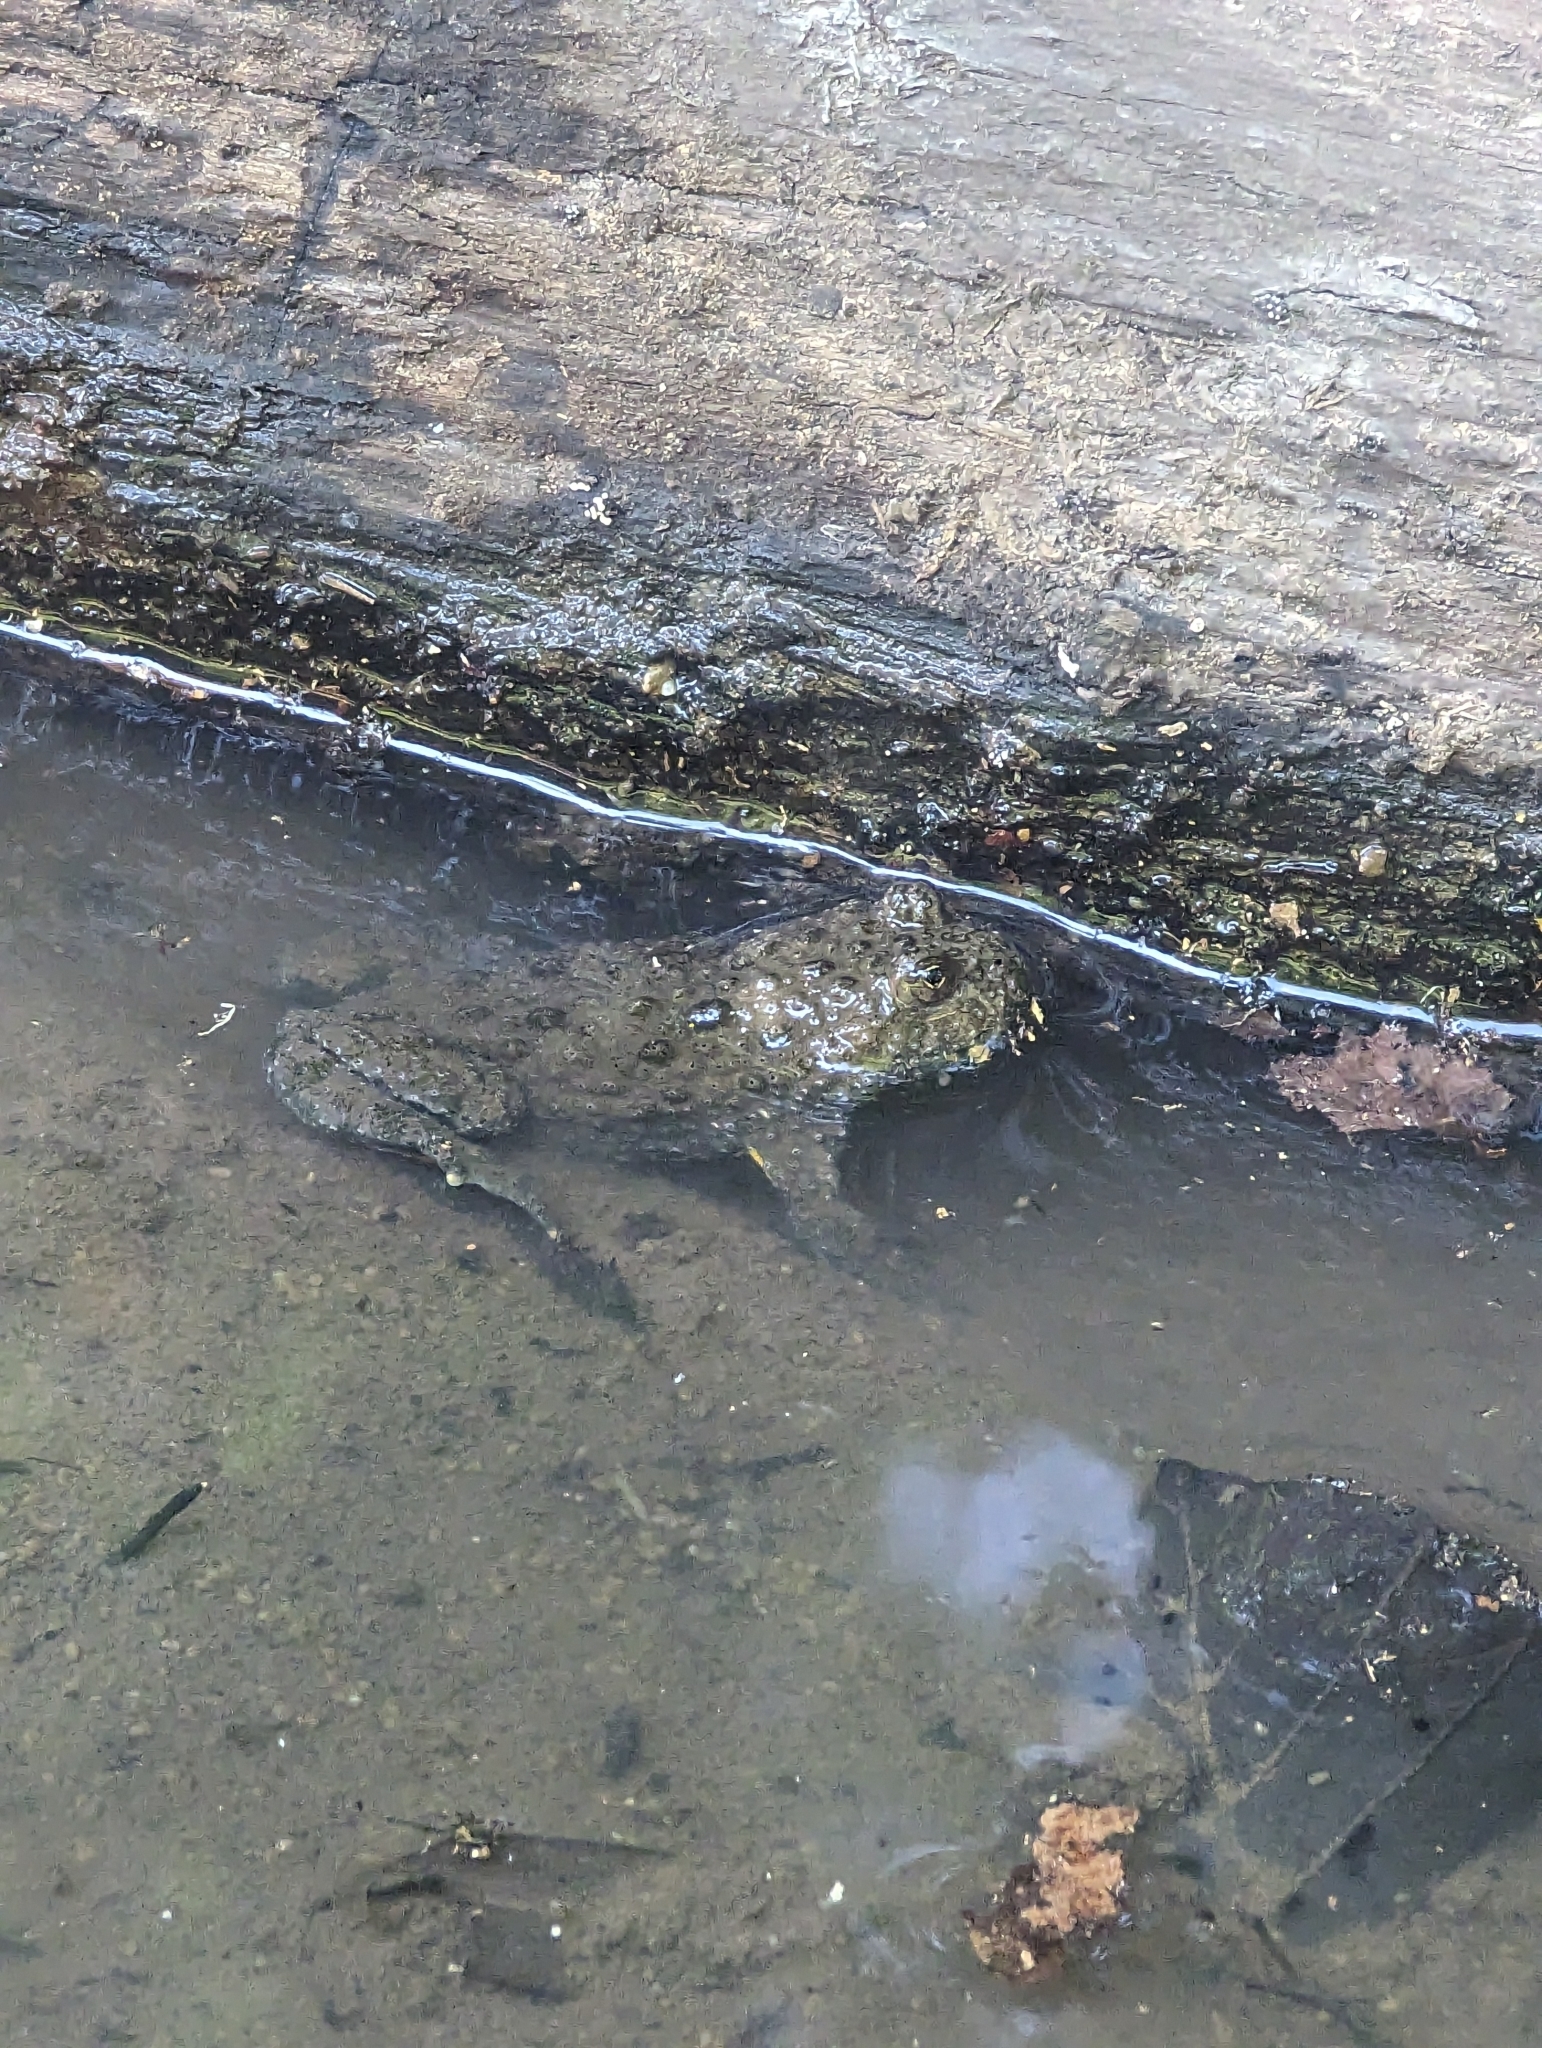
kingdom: Animalia
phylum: Chordata
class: Amphibia
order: Anura
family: Bombinatoridae
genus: Bombina
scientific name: Bombina variegata
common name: Yellow-bellied toad
